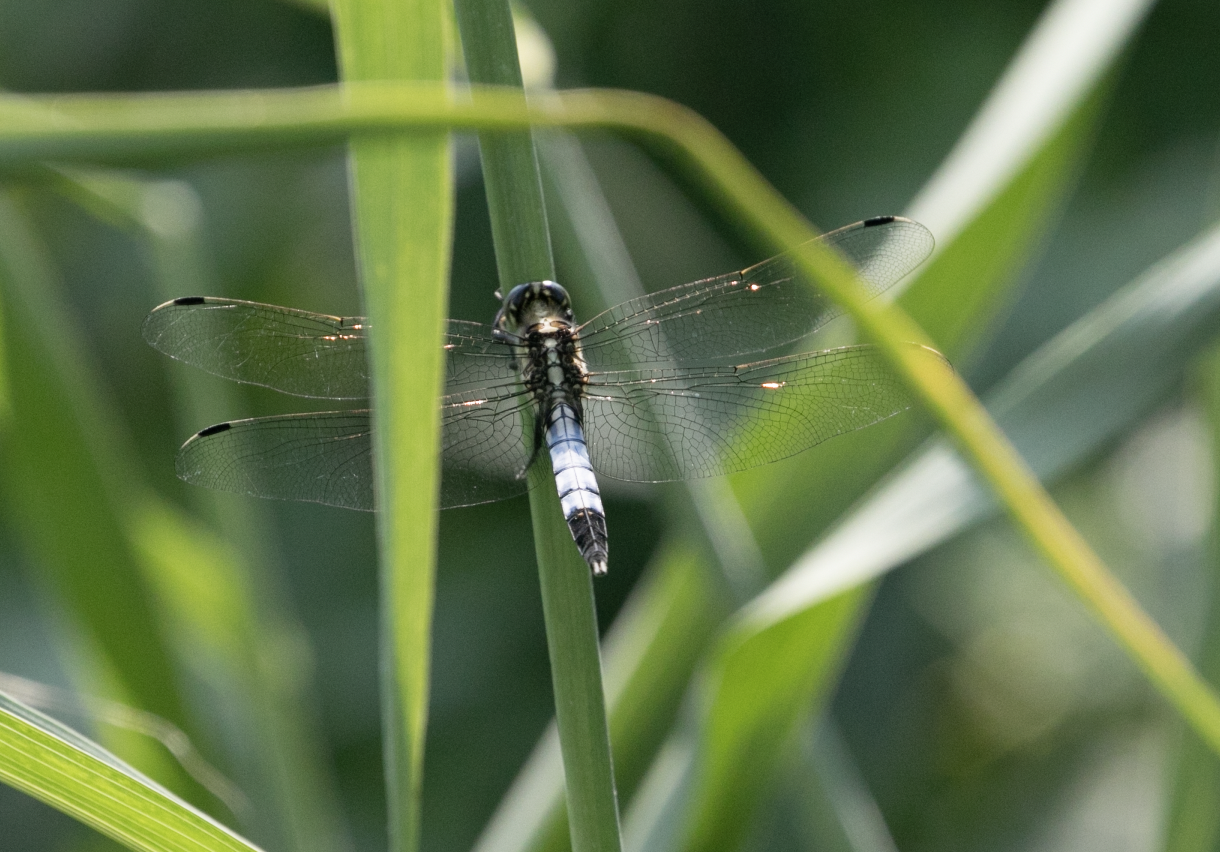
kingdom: Animalia
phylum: Arthropoda
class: Insecta
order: Odonata
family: Libellulidae
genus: Orthetrum
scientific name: Orthetrum albistylum
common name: White-tailed skimmer
